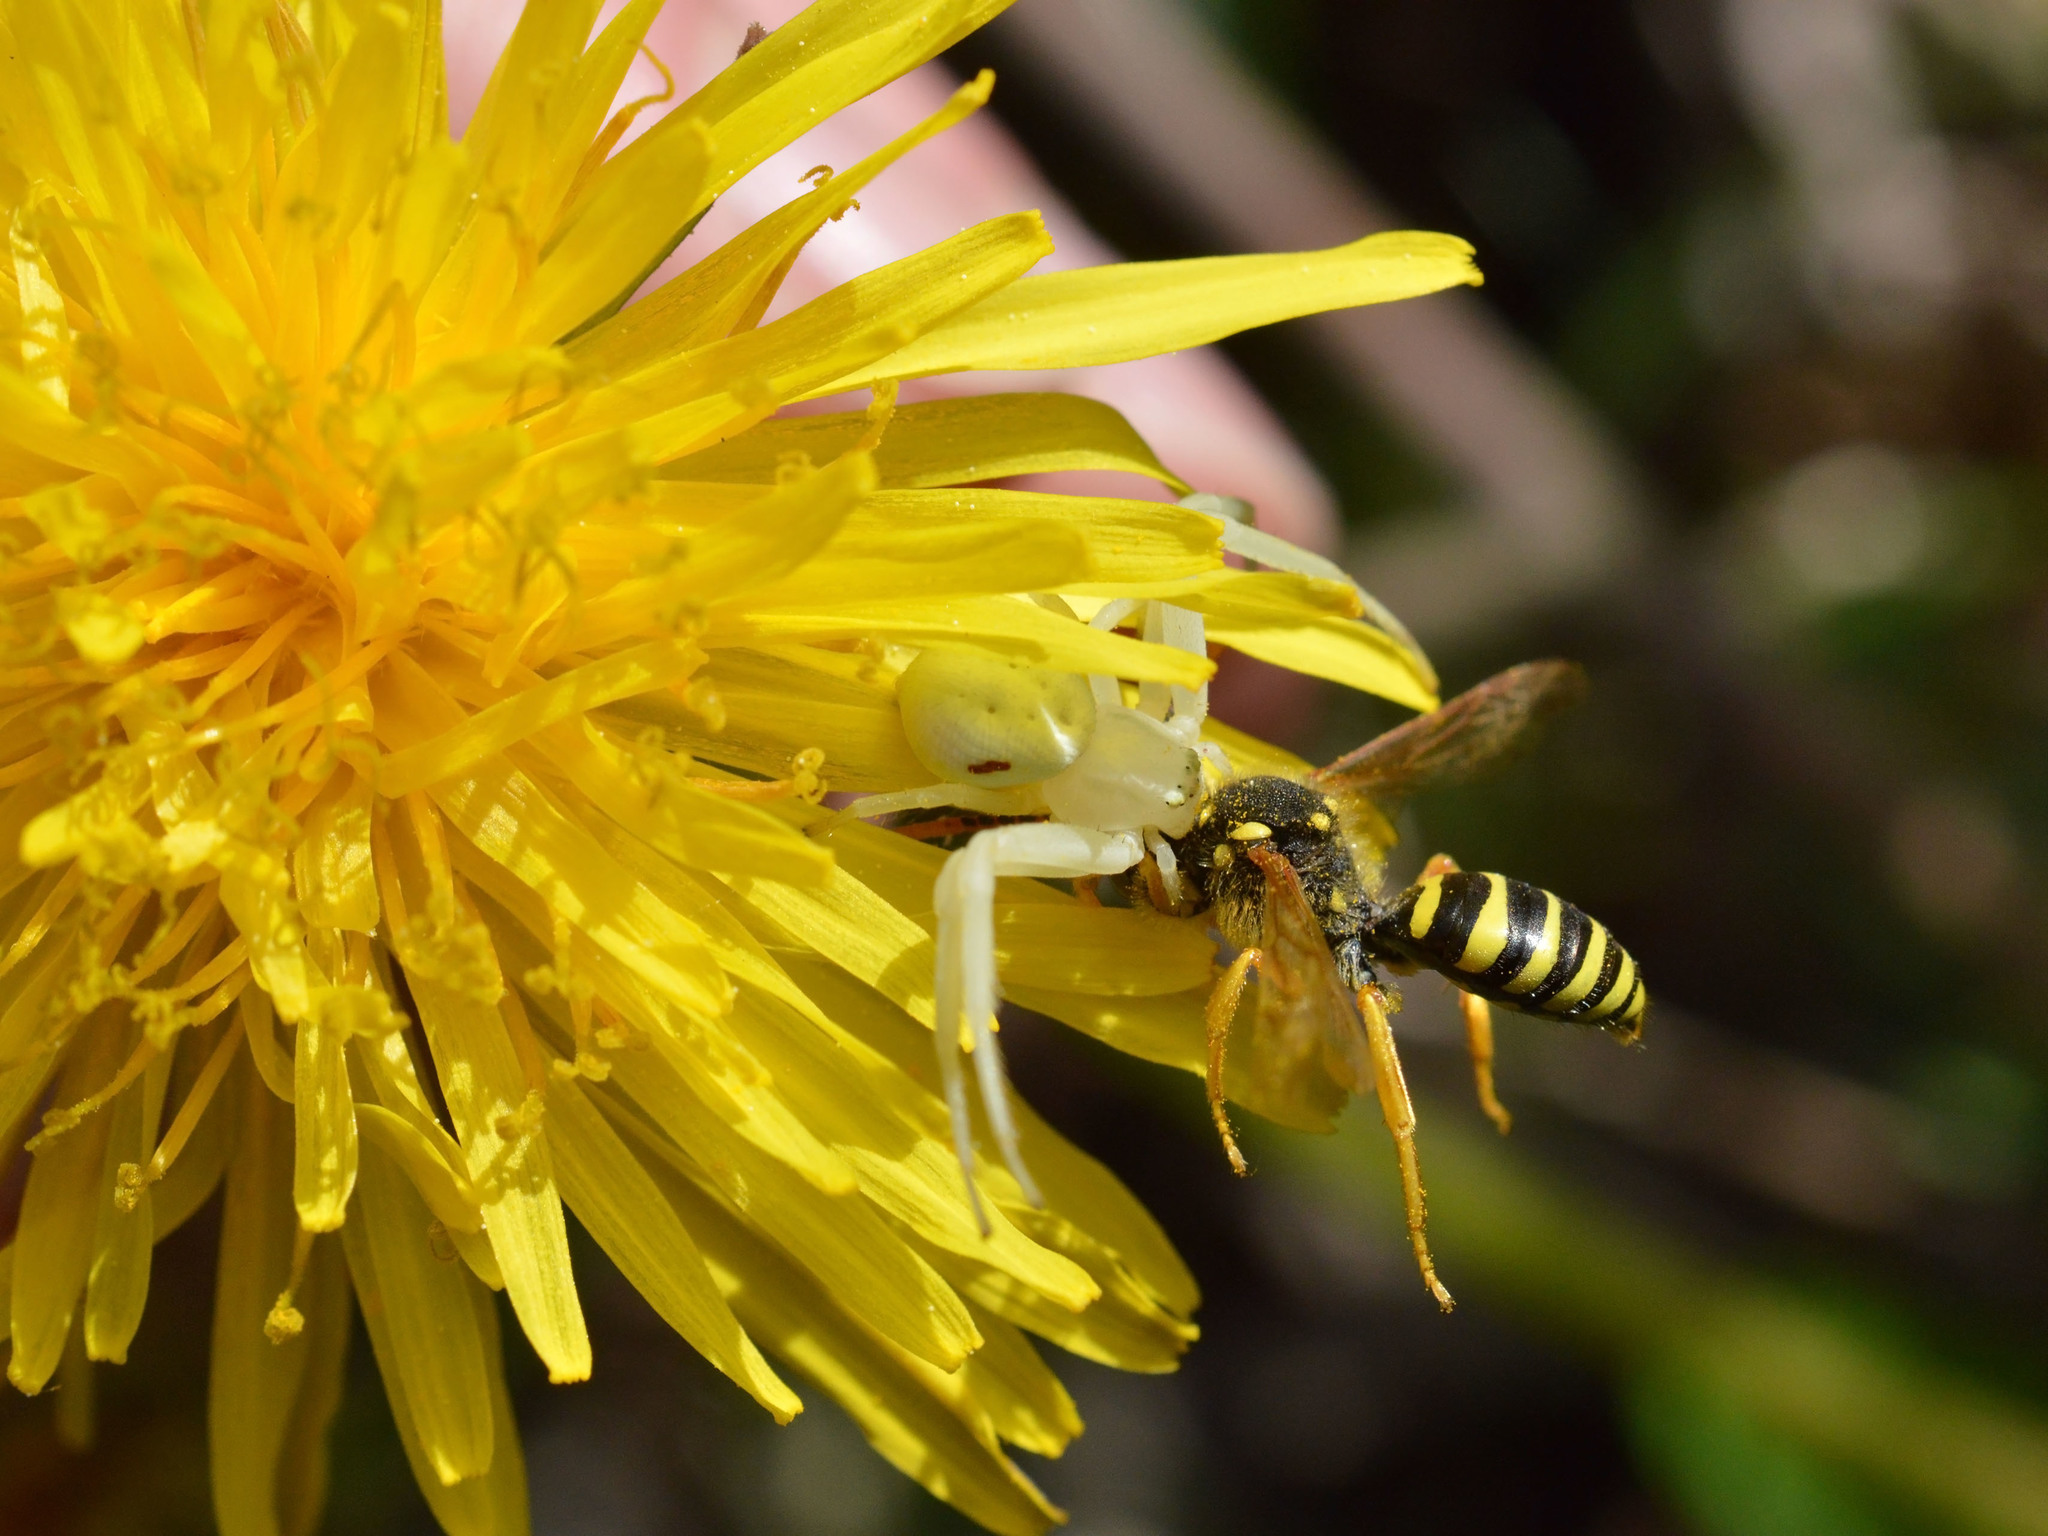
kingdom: Animalia
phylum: Arthropoda
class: Arachnida
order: Araneae
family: Thomisidae
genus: Misumena
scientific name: Misumena vatia
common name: Goldenrod crab spider
